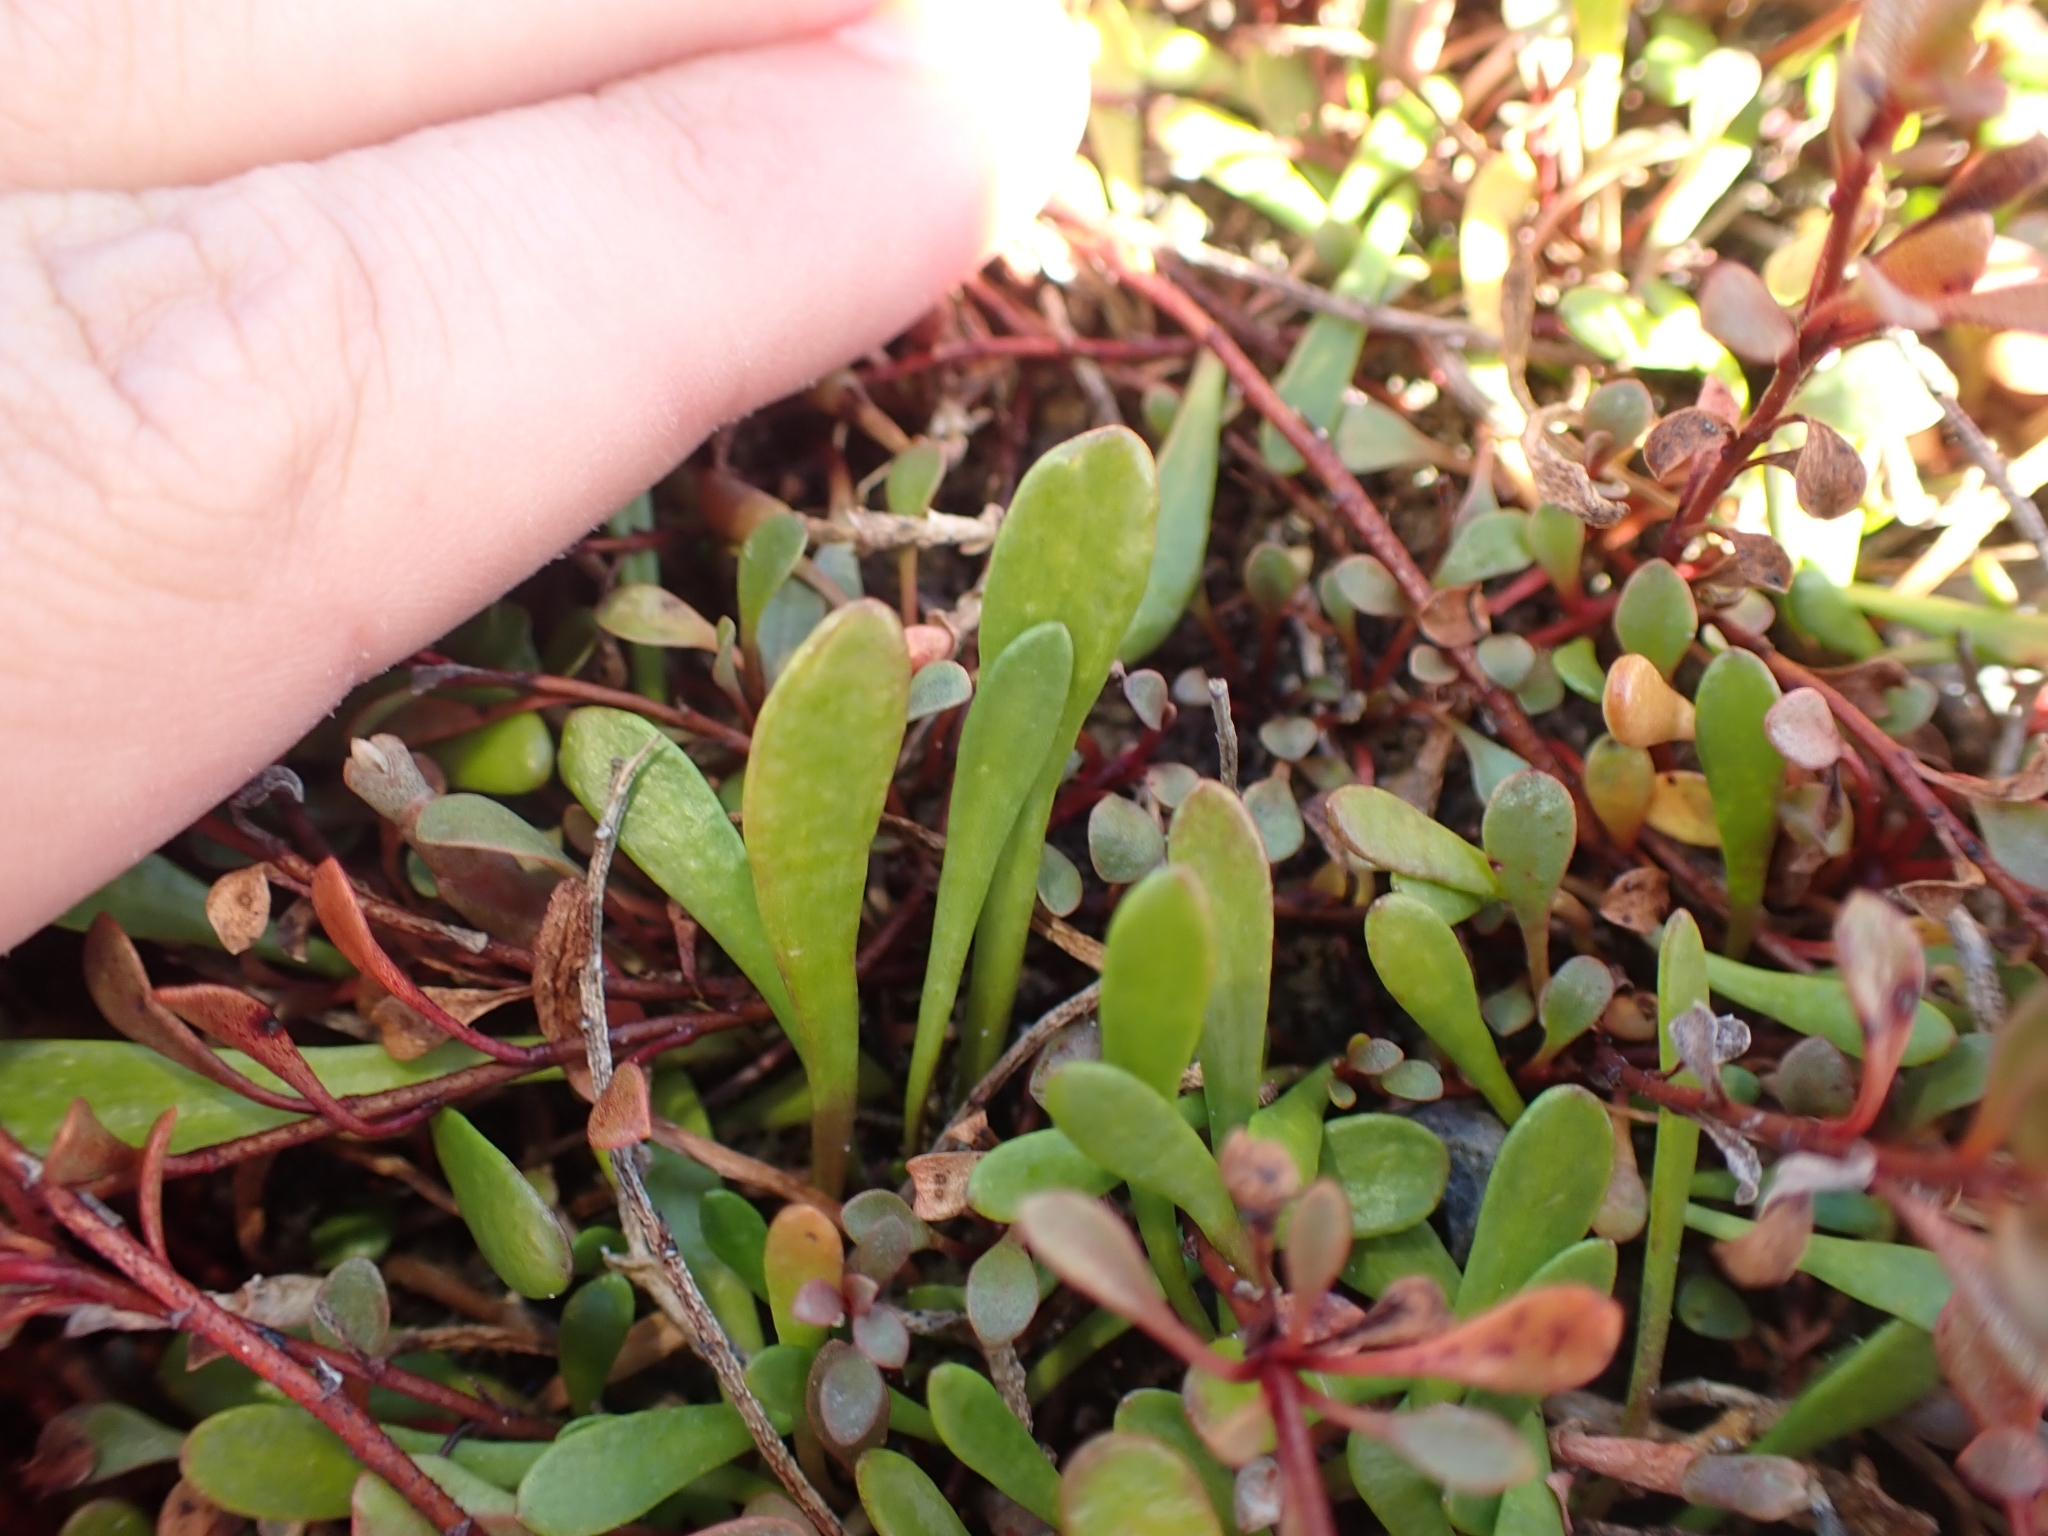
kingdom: Plantae
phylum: Tracheophyta
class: Magnoliopsida
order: Asterales
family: Goodeniaceae
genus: Goodenia
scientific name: Goodenia radicans
